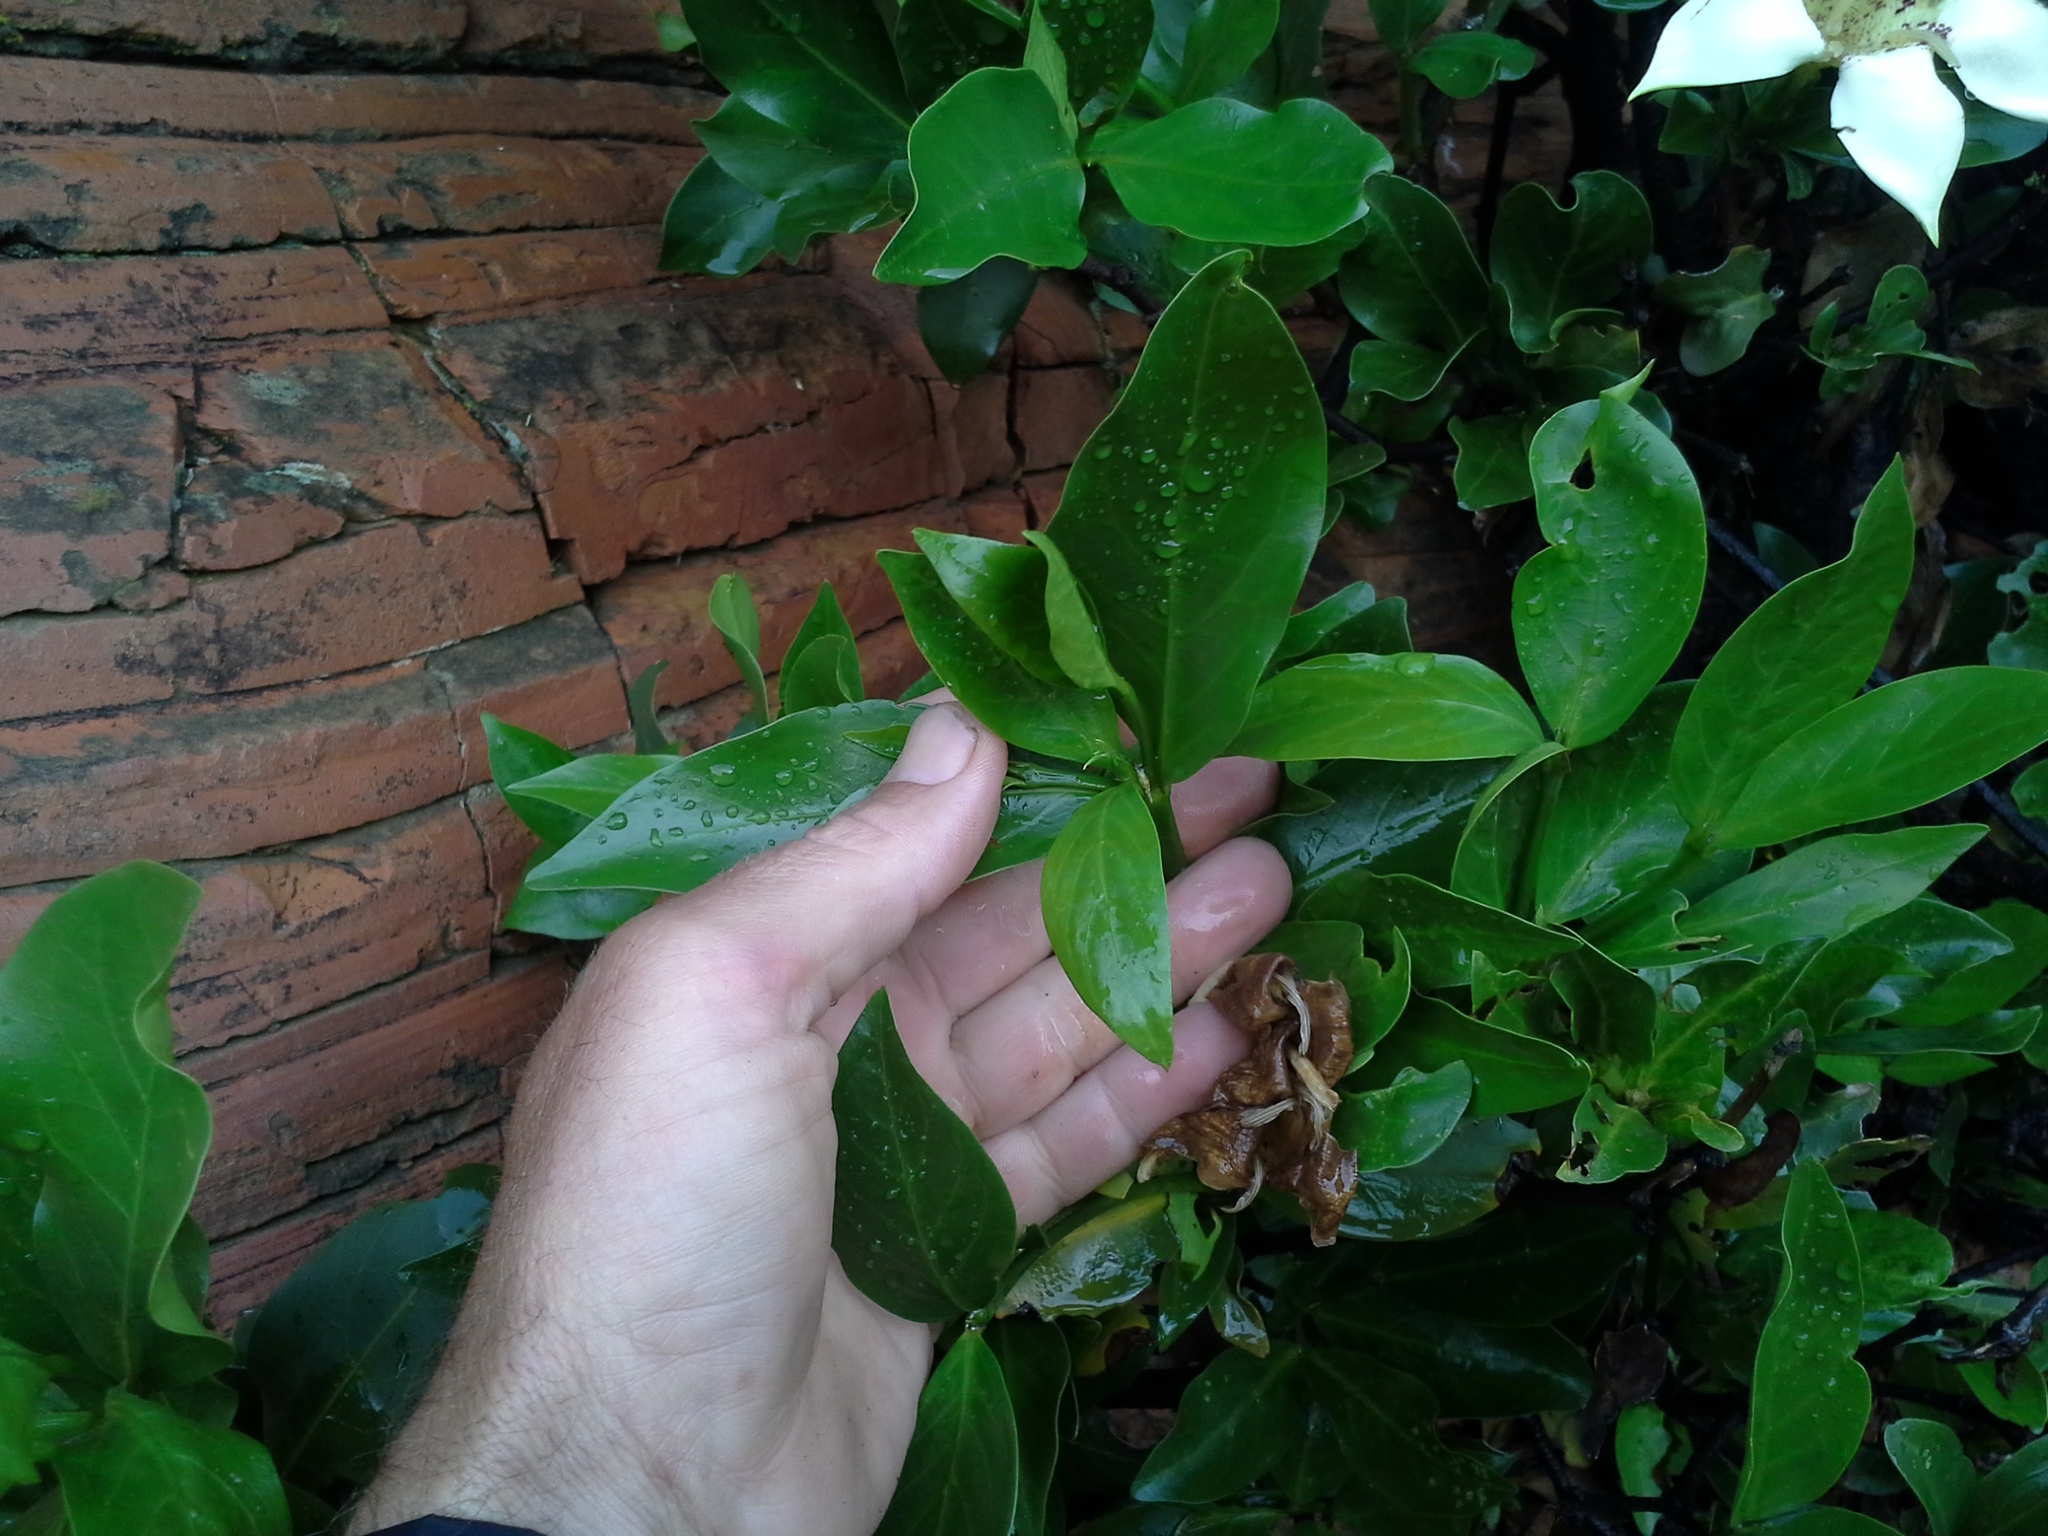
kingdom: Plantae
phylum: Tracheophyta
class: Magnoliopsida
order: Gentianales
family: Rubiaceae
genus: Rothmannia
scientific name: Rothmannia capensis
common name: Cape gardenia
